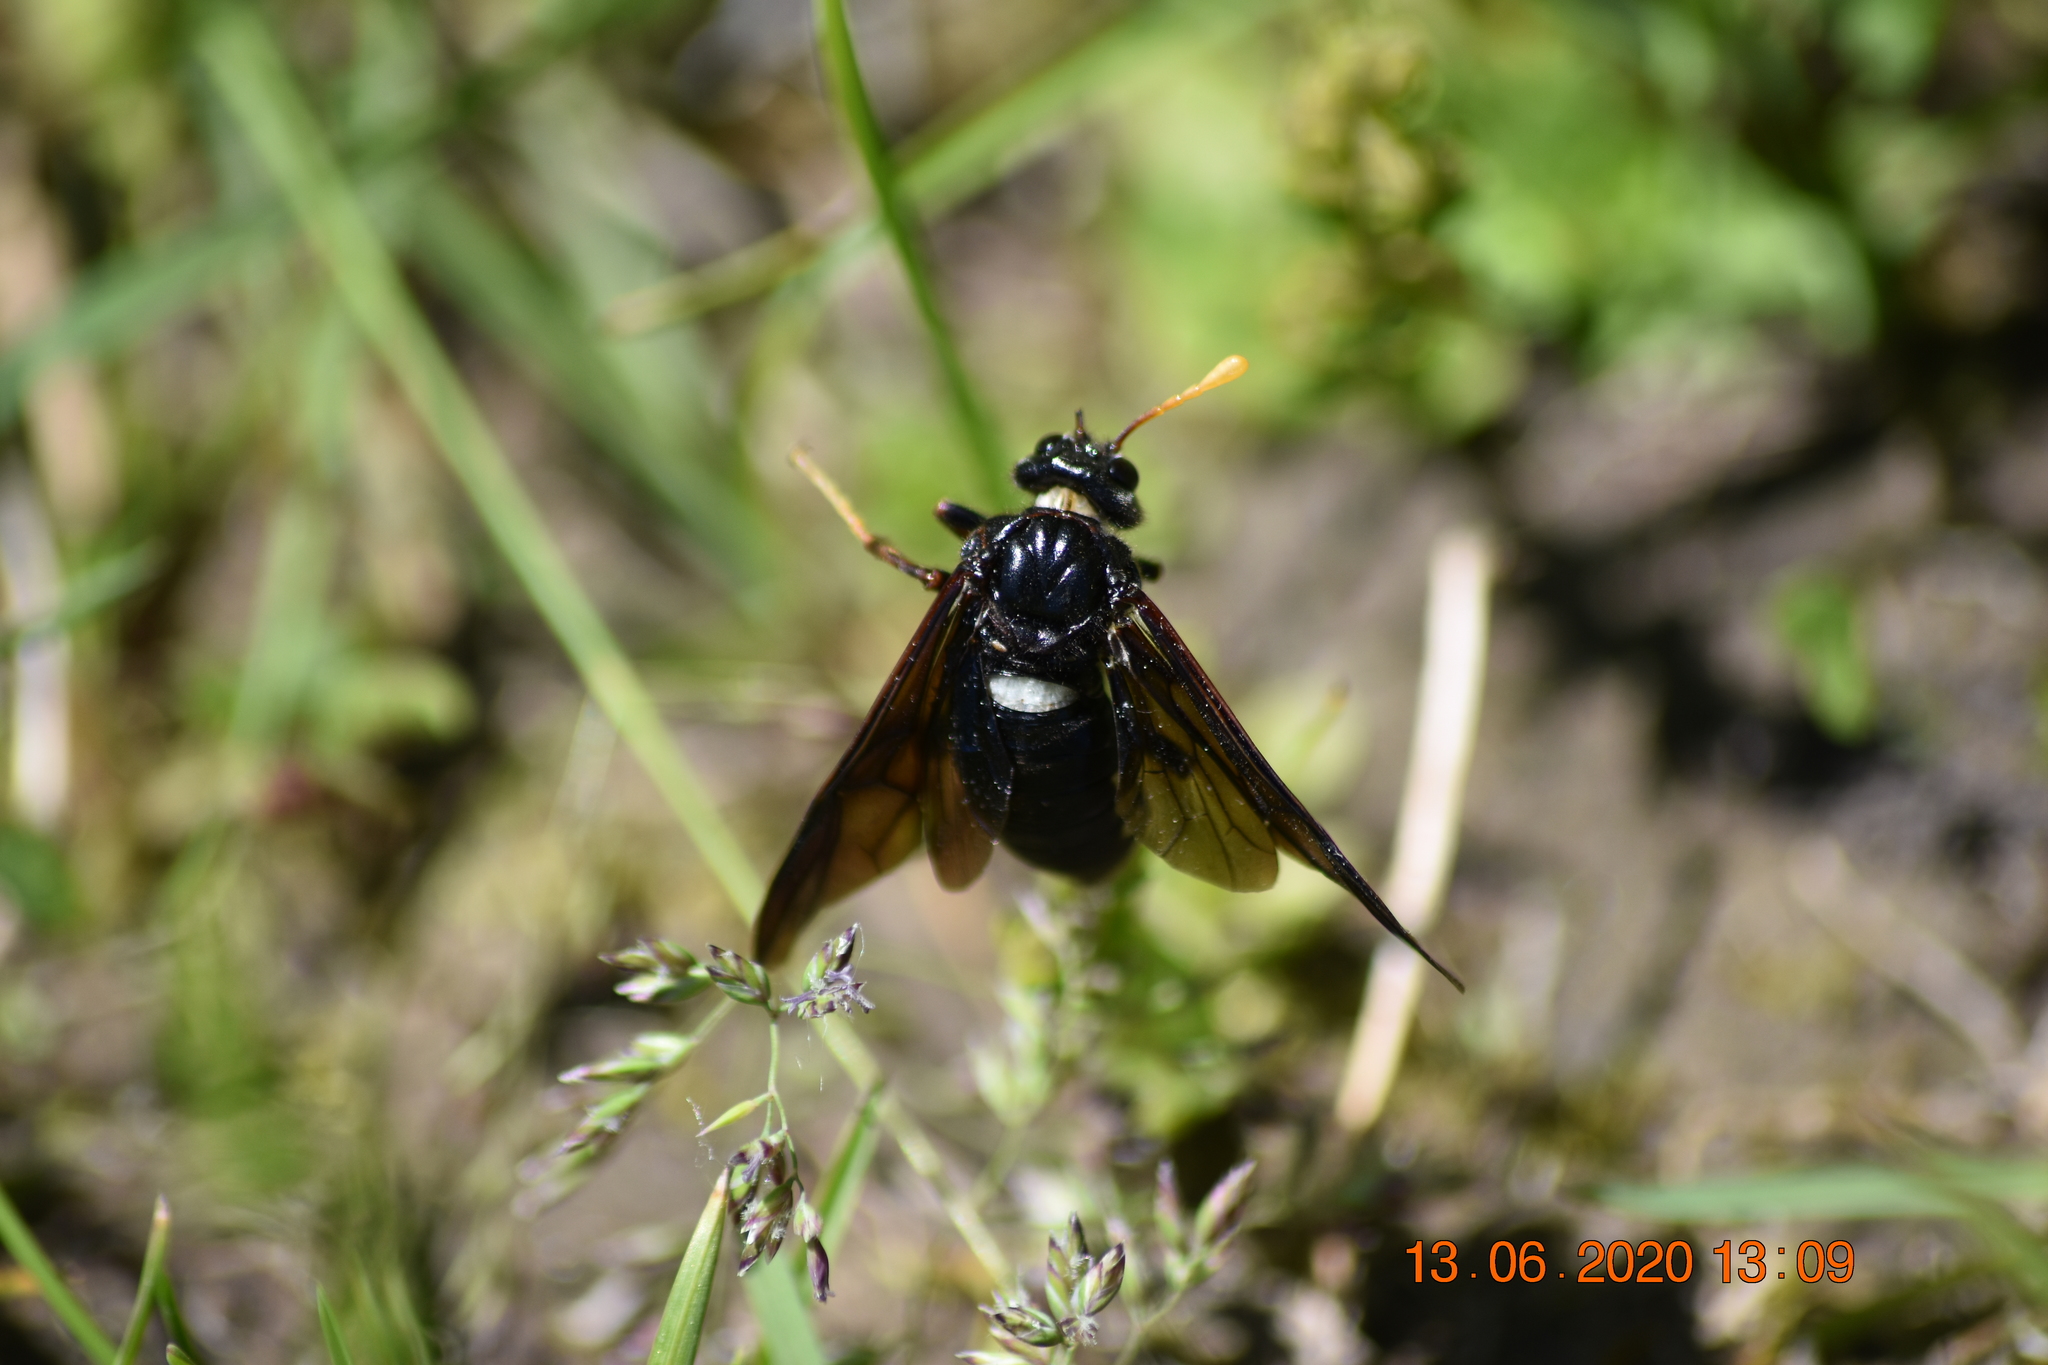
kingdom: Animalia
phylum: Arthropoda
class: Insecta
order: Hymenoptera
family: Cimbicidae
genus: Cimbex
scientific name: Cimbex americana
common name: Elm sawfly
